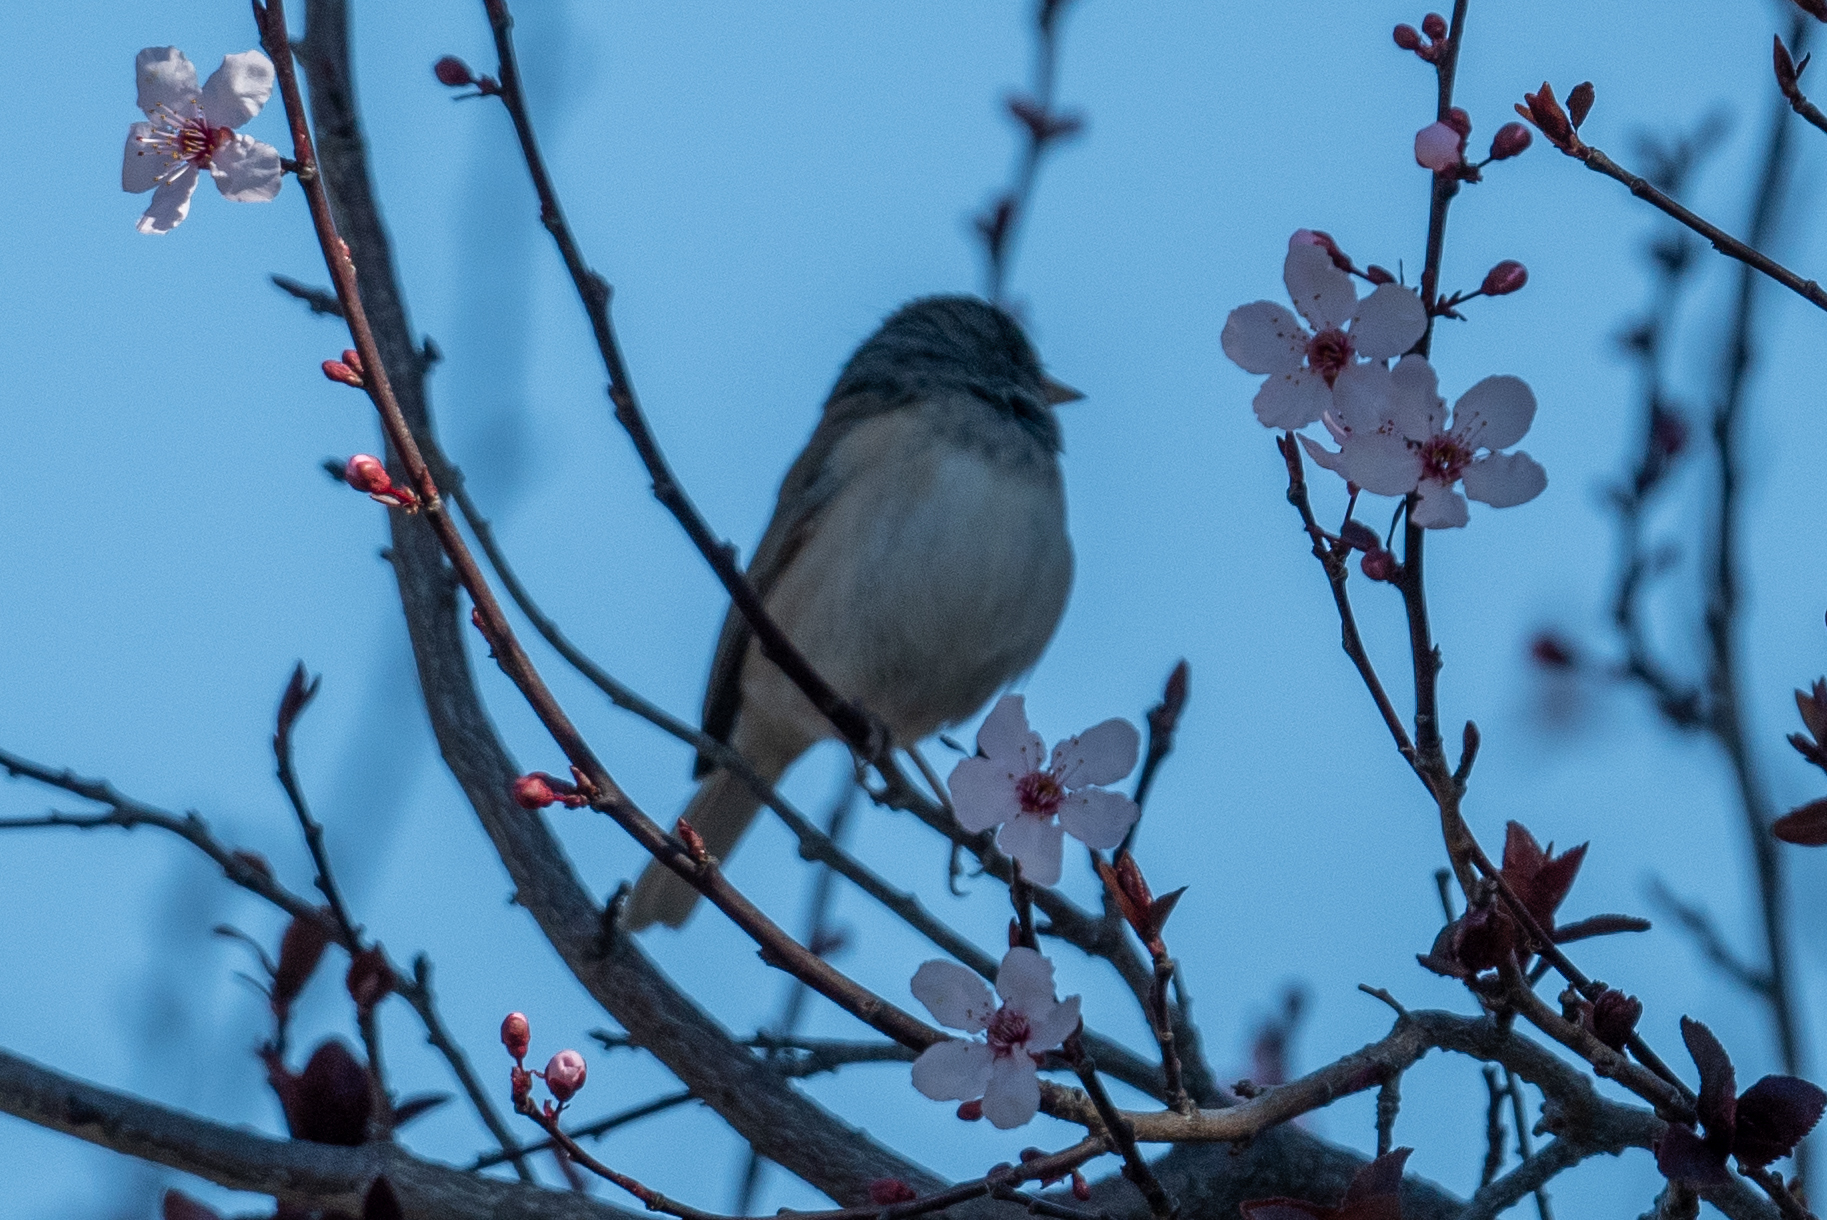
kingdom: Animalia
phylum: Chordata
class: Aves
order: Passeriformes
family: Passerellidae
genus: Junco
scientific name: Junco hyemalis
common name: Dark-eyed junco
